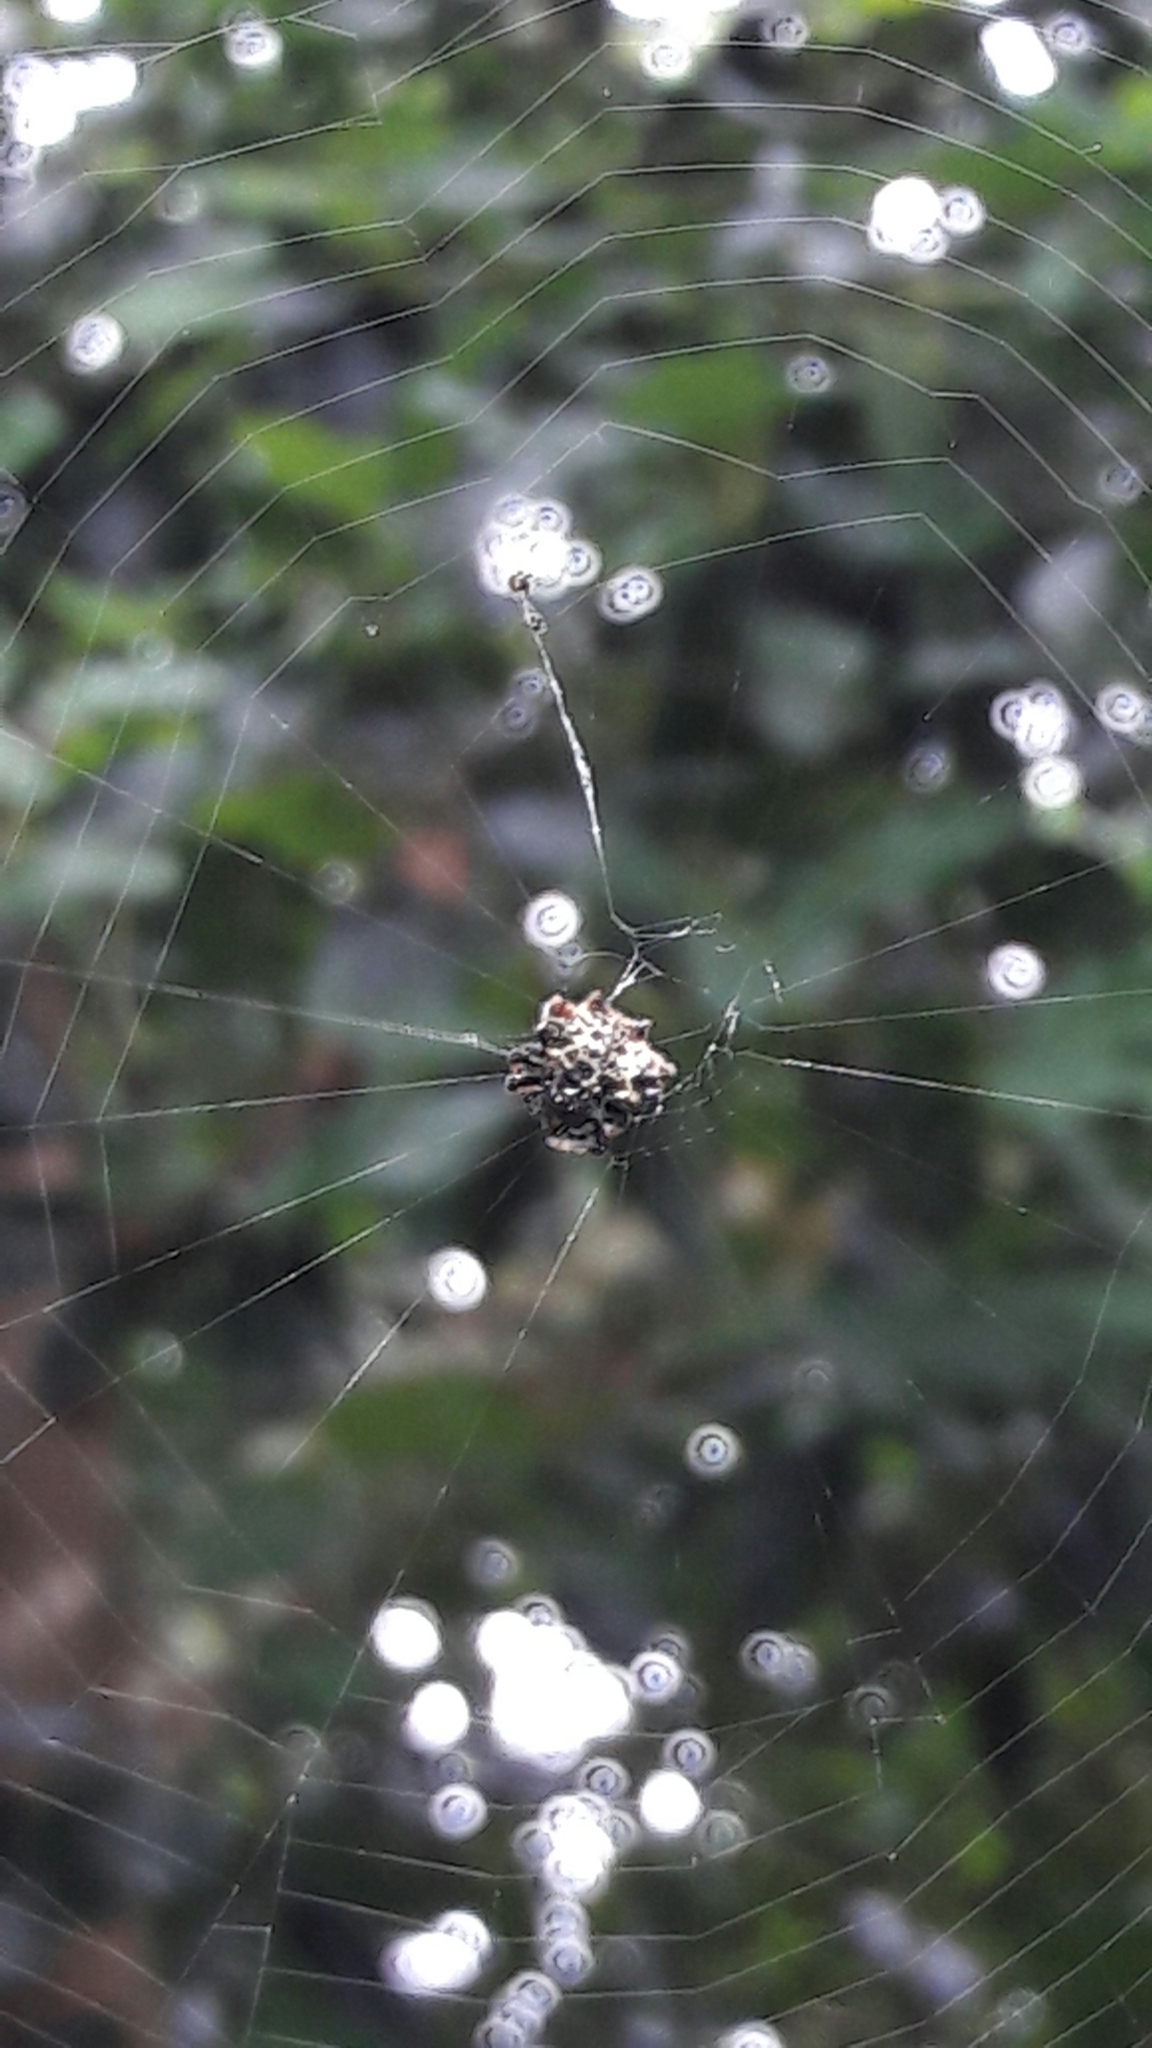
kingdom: Animalia
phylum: Arthropoda
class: Arachnida
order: Araneae
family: Araneidae
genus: Gasteracantha
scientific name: Gasteracantha cancriformis
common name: Orb weavers
